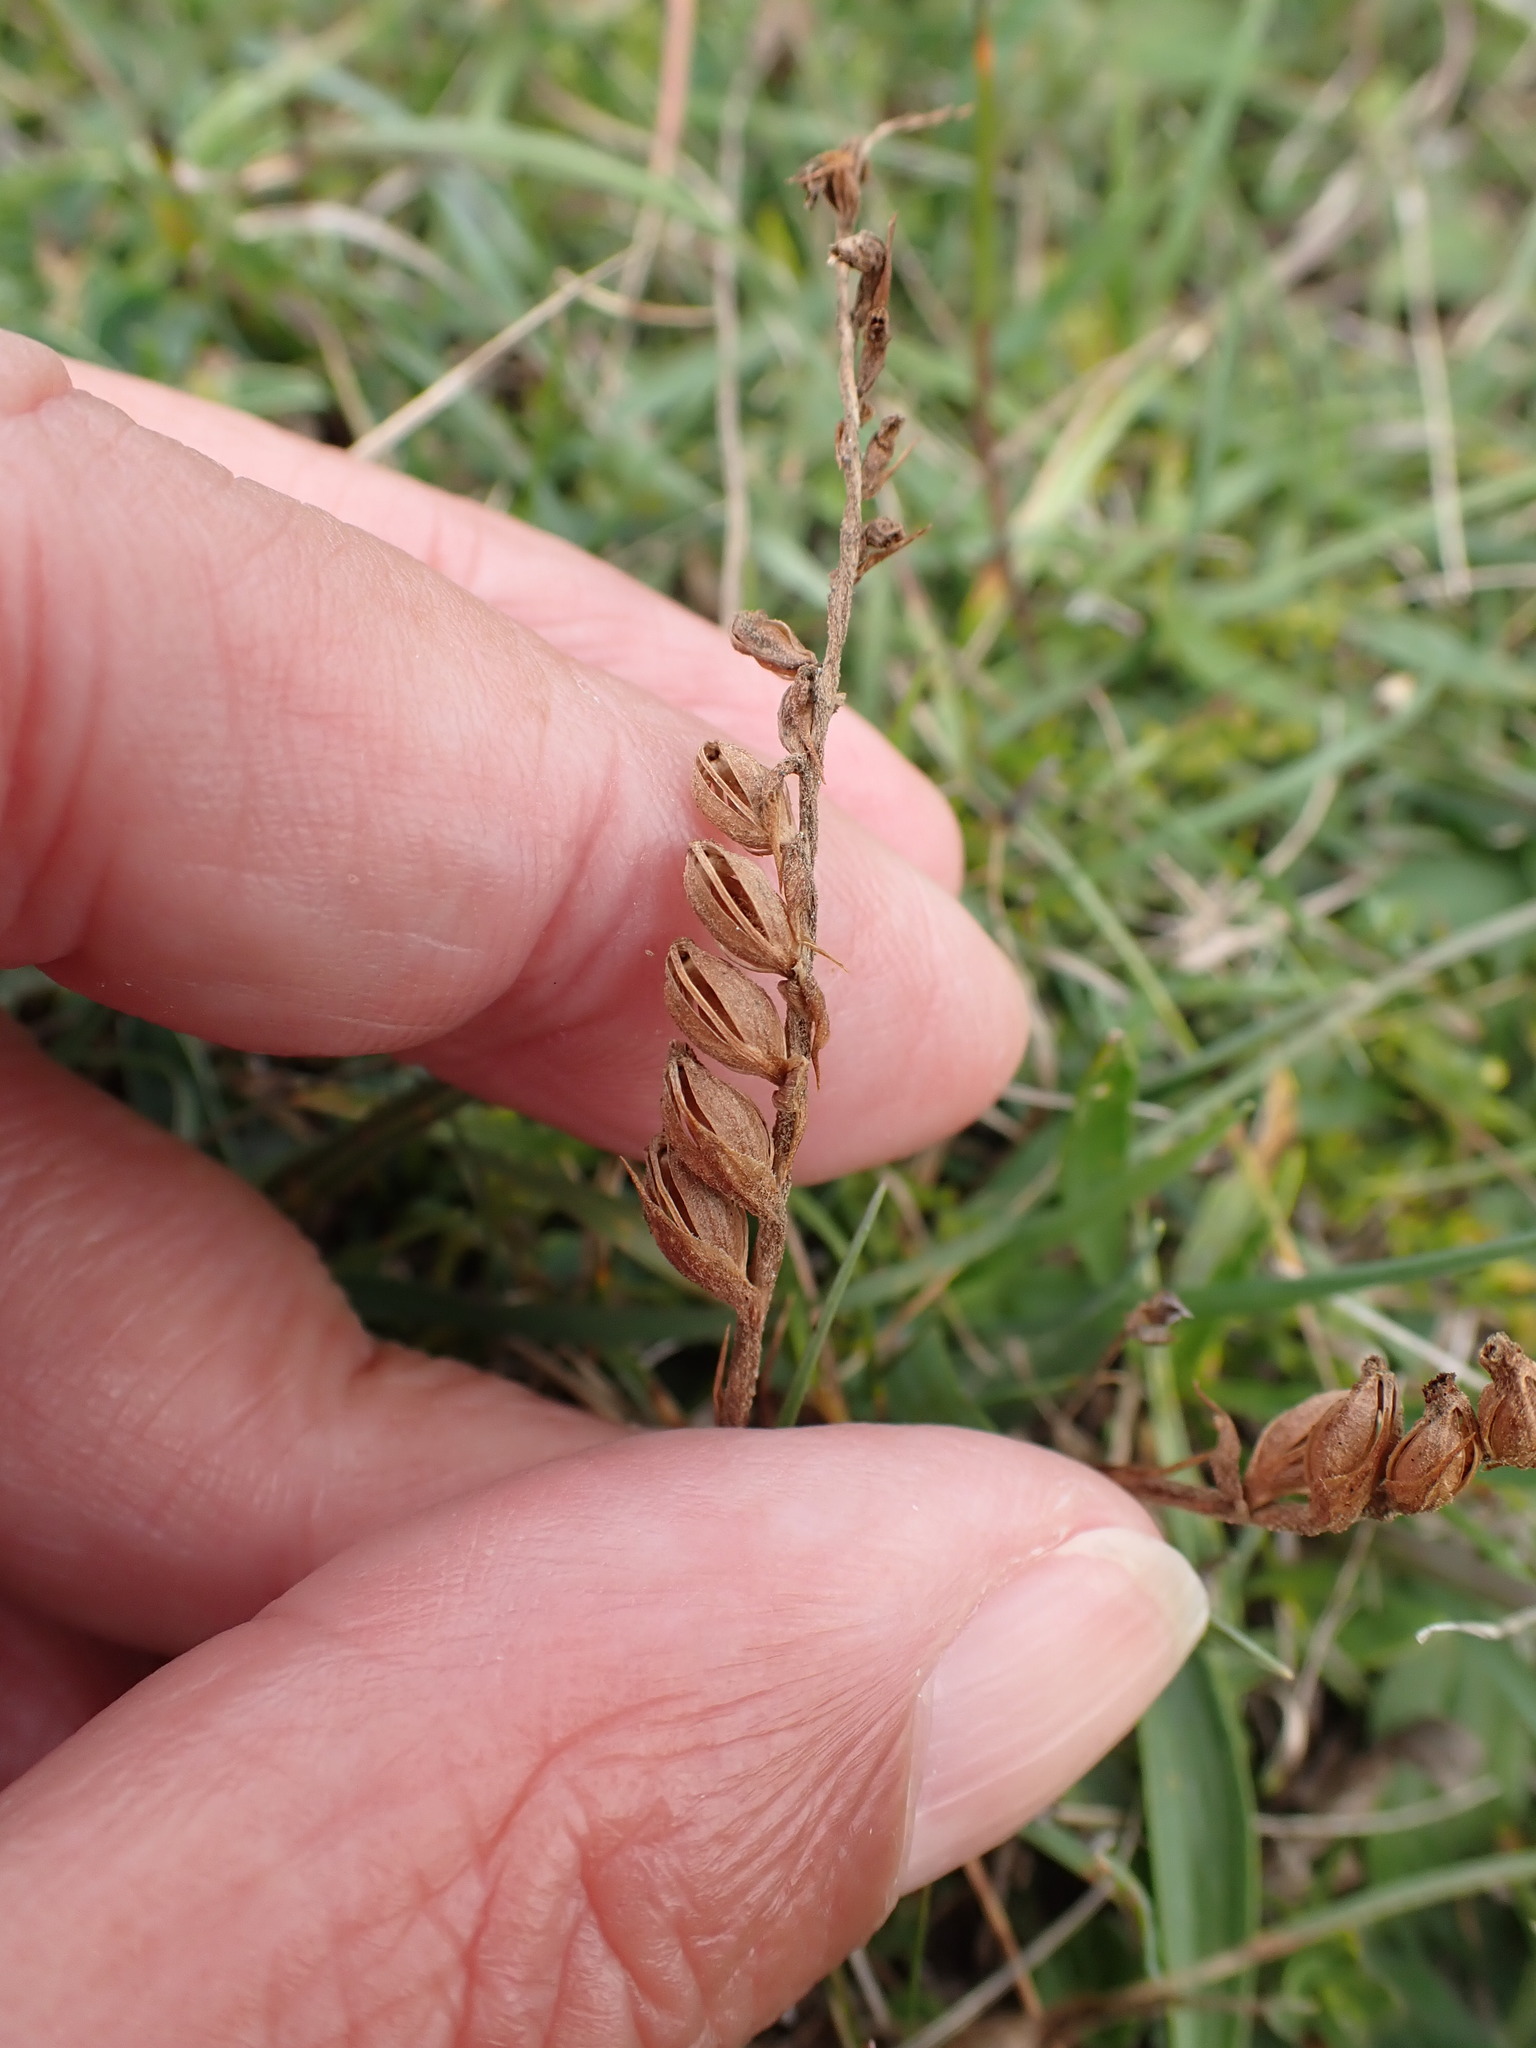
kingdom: Plantae
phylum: Tracheophyta
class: Liliopsida
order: Asparagales
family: Orchidaceae
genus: Spiranthes
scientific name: Spiranthes spiralis
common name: Autumn lady's-tresses
